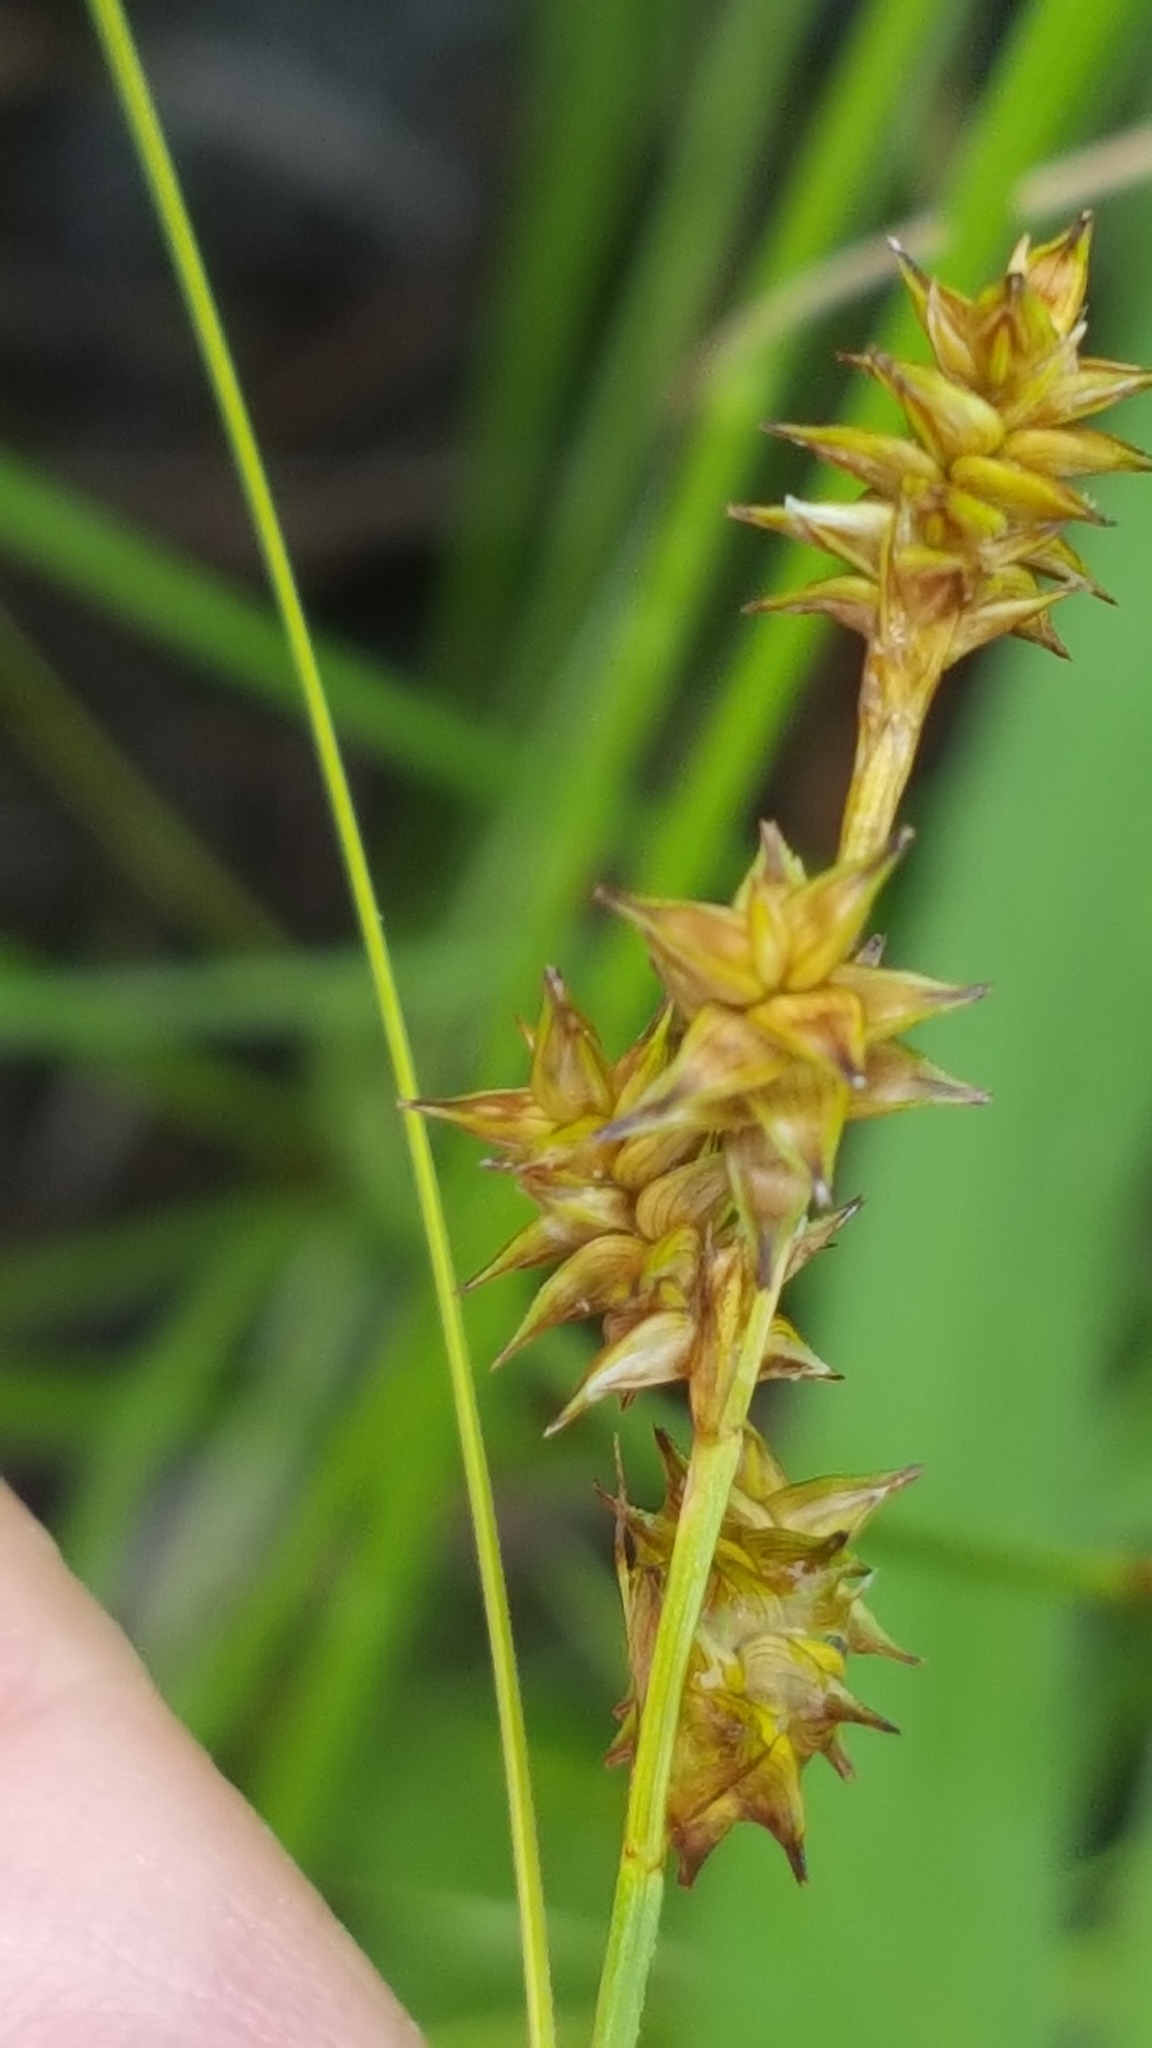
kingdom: Plantae
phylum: Tracheophyta
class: Liliopsida
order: Poales
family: Cyperaceae
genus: Carex
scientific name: Carex echinata
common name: Star sedge
